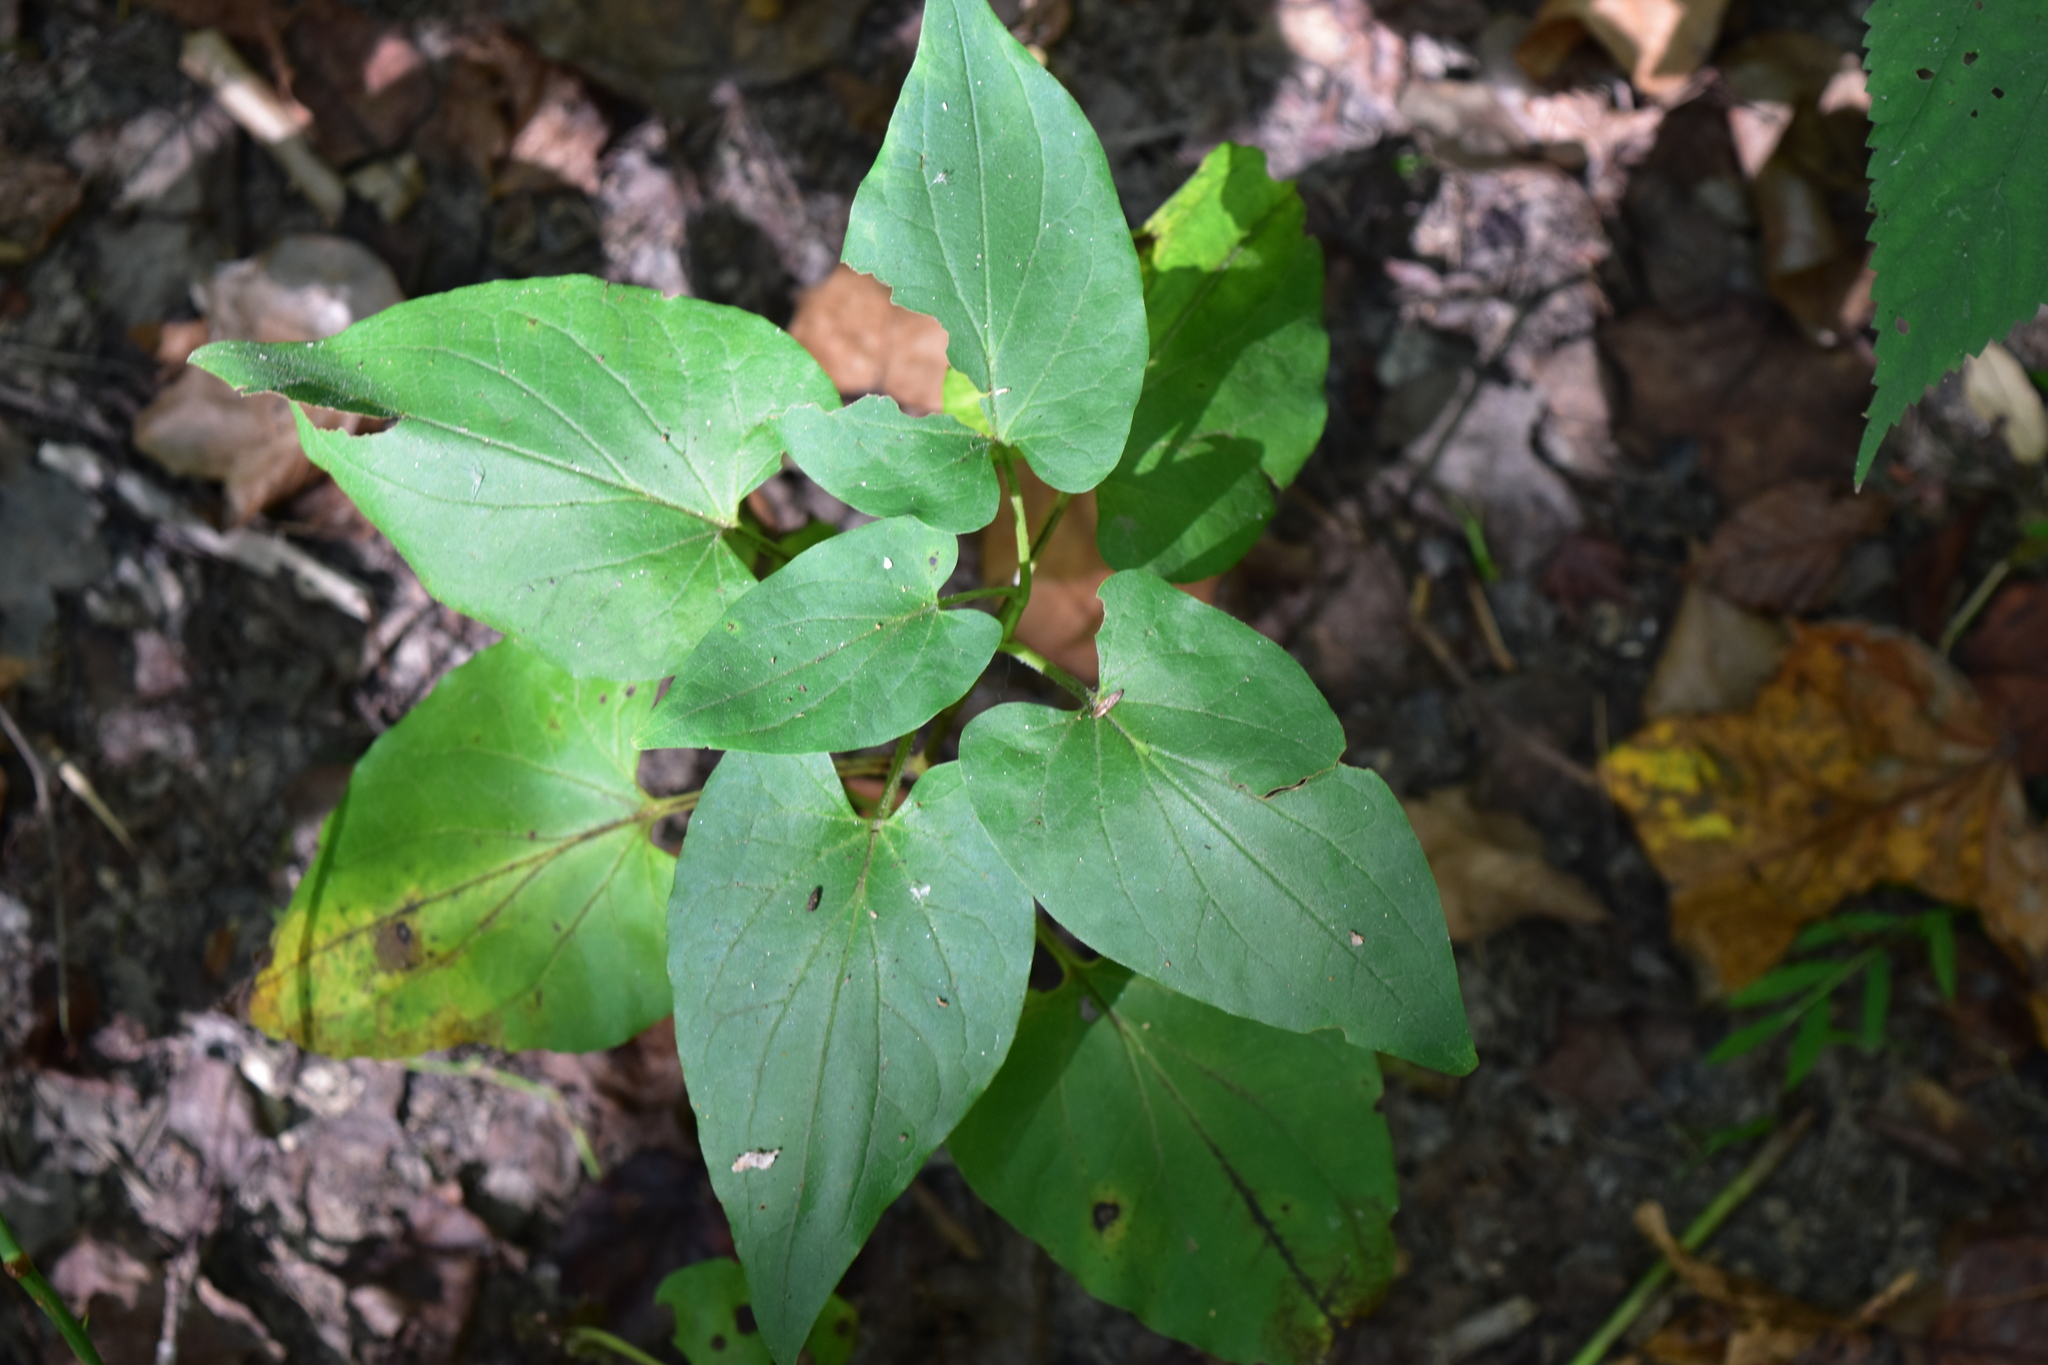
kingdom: Plantae
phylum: Tracheophyta
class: Magnoliopsida
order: Piperales
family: Saururaceae
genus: Saururus
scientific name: Saururus cernuus
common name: Lizard's-tail
